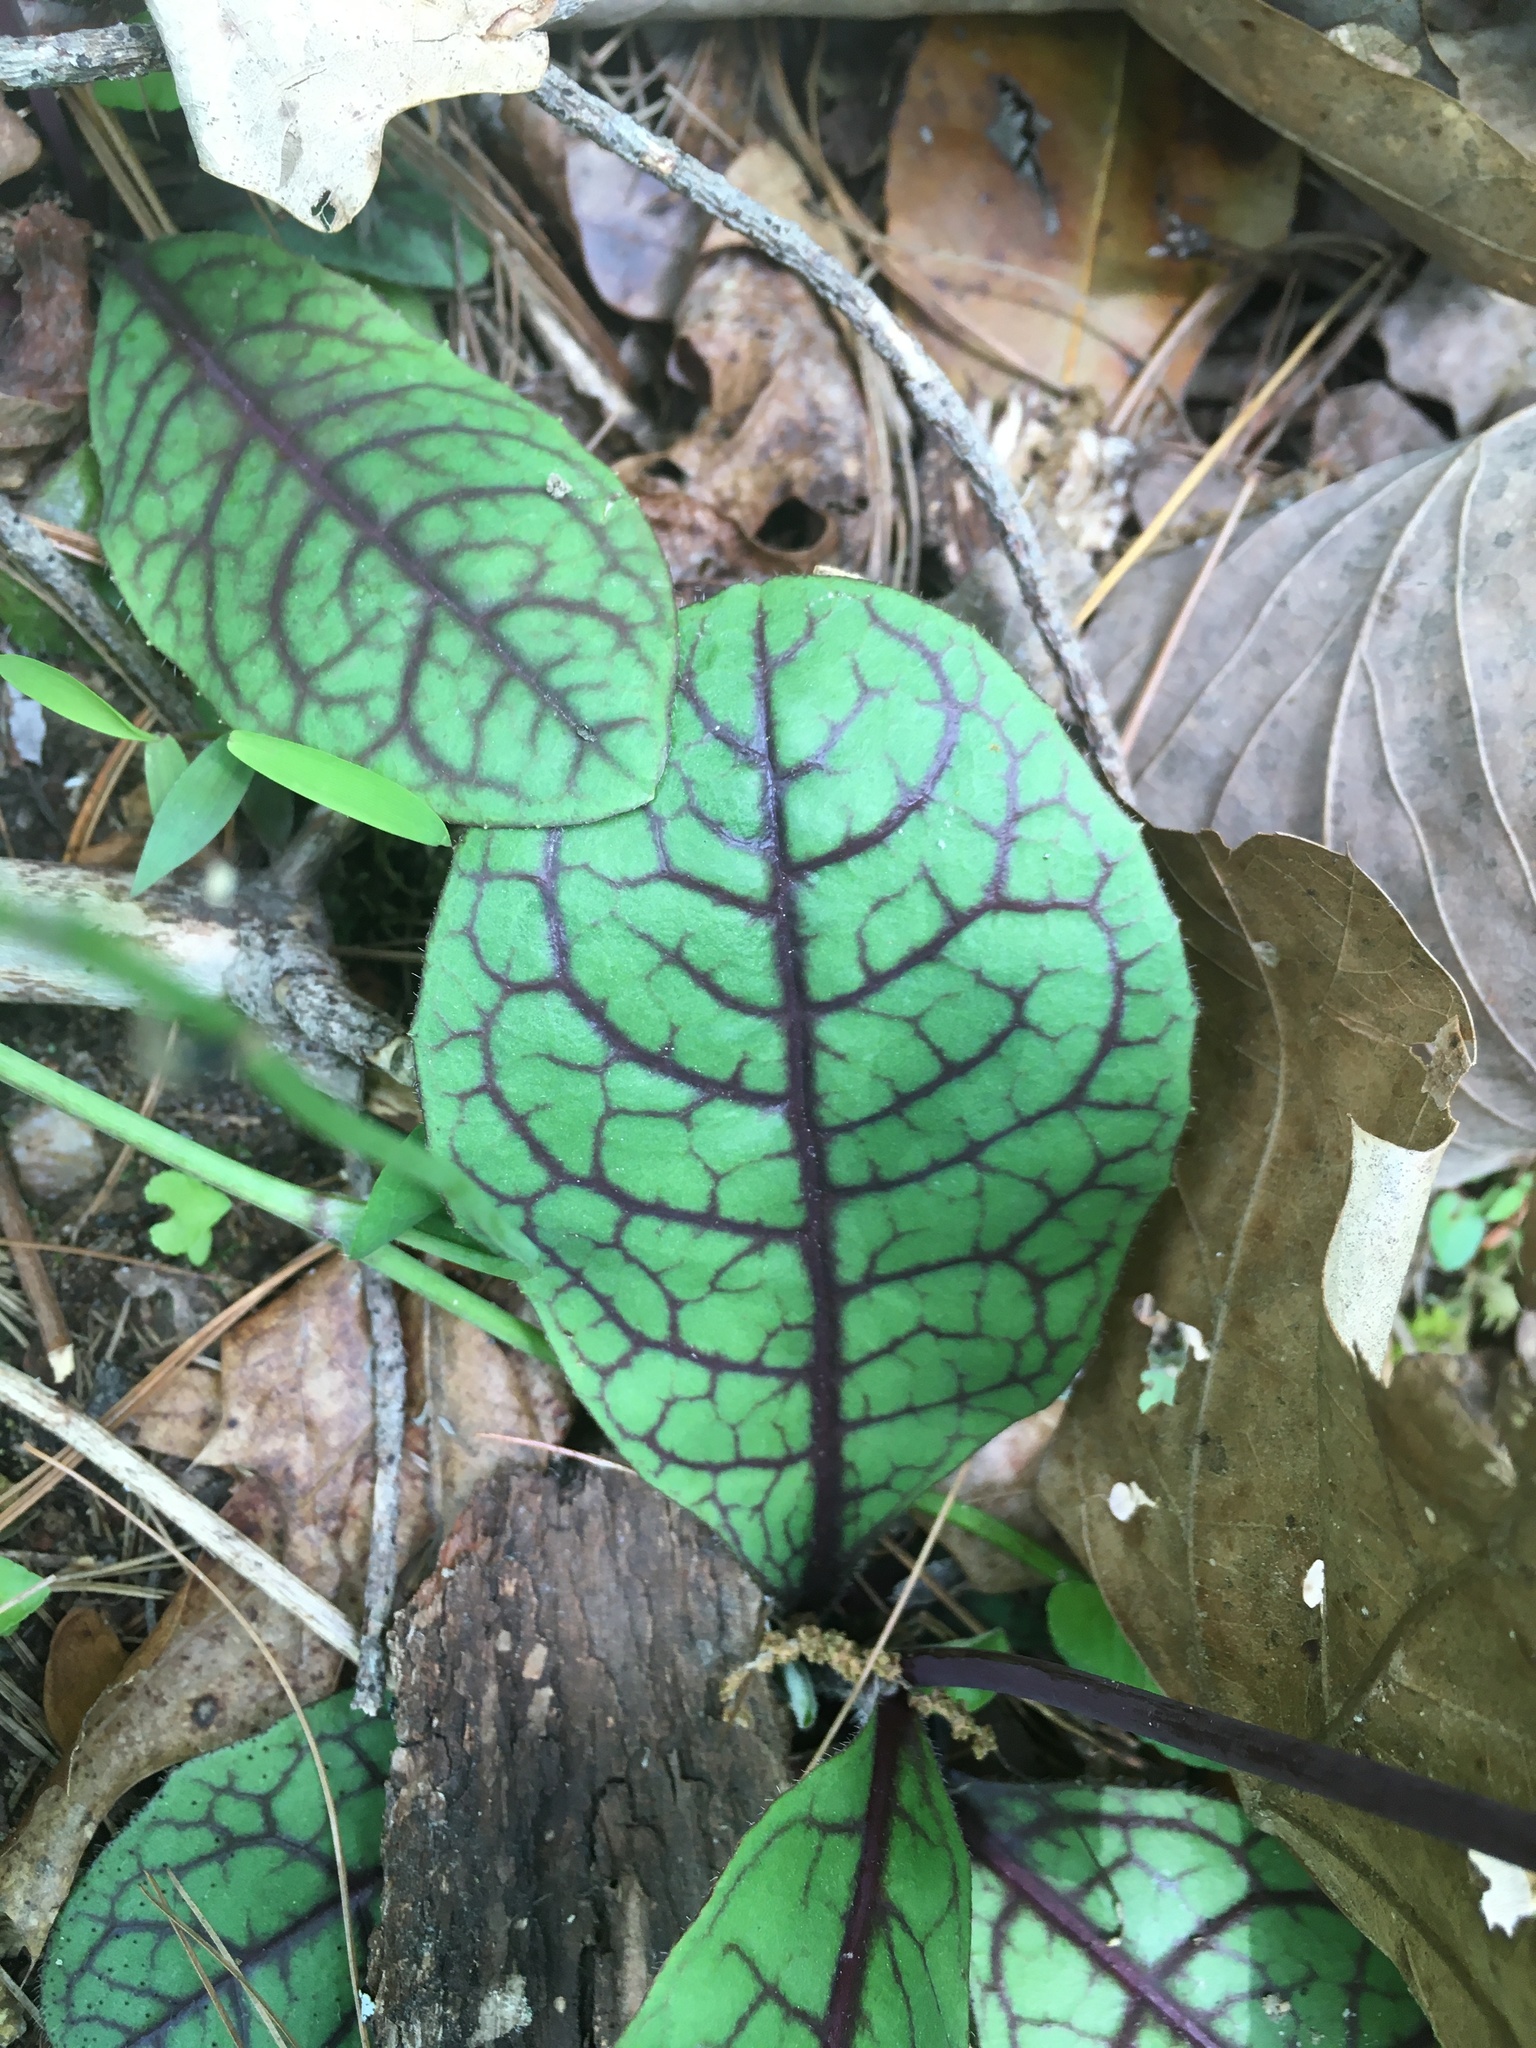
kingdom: Plantae
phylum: Tracheophyta
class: Magnoliopsida
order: Asterales
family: Asteraceae
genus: Hieracium
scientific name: Hieracium venosum
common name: Rattlesnake hawkweed
